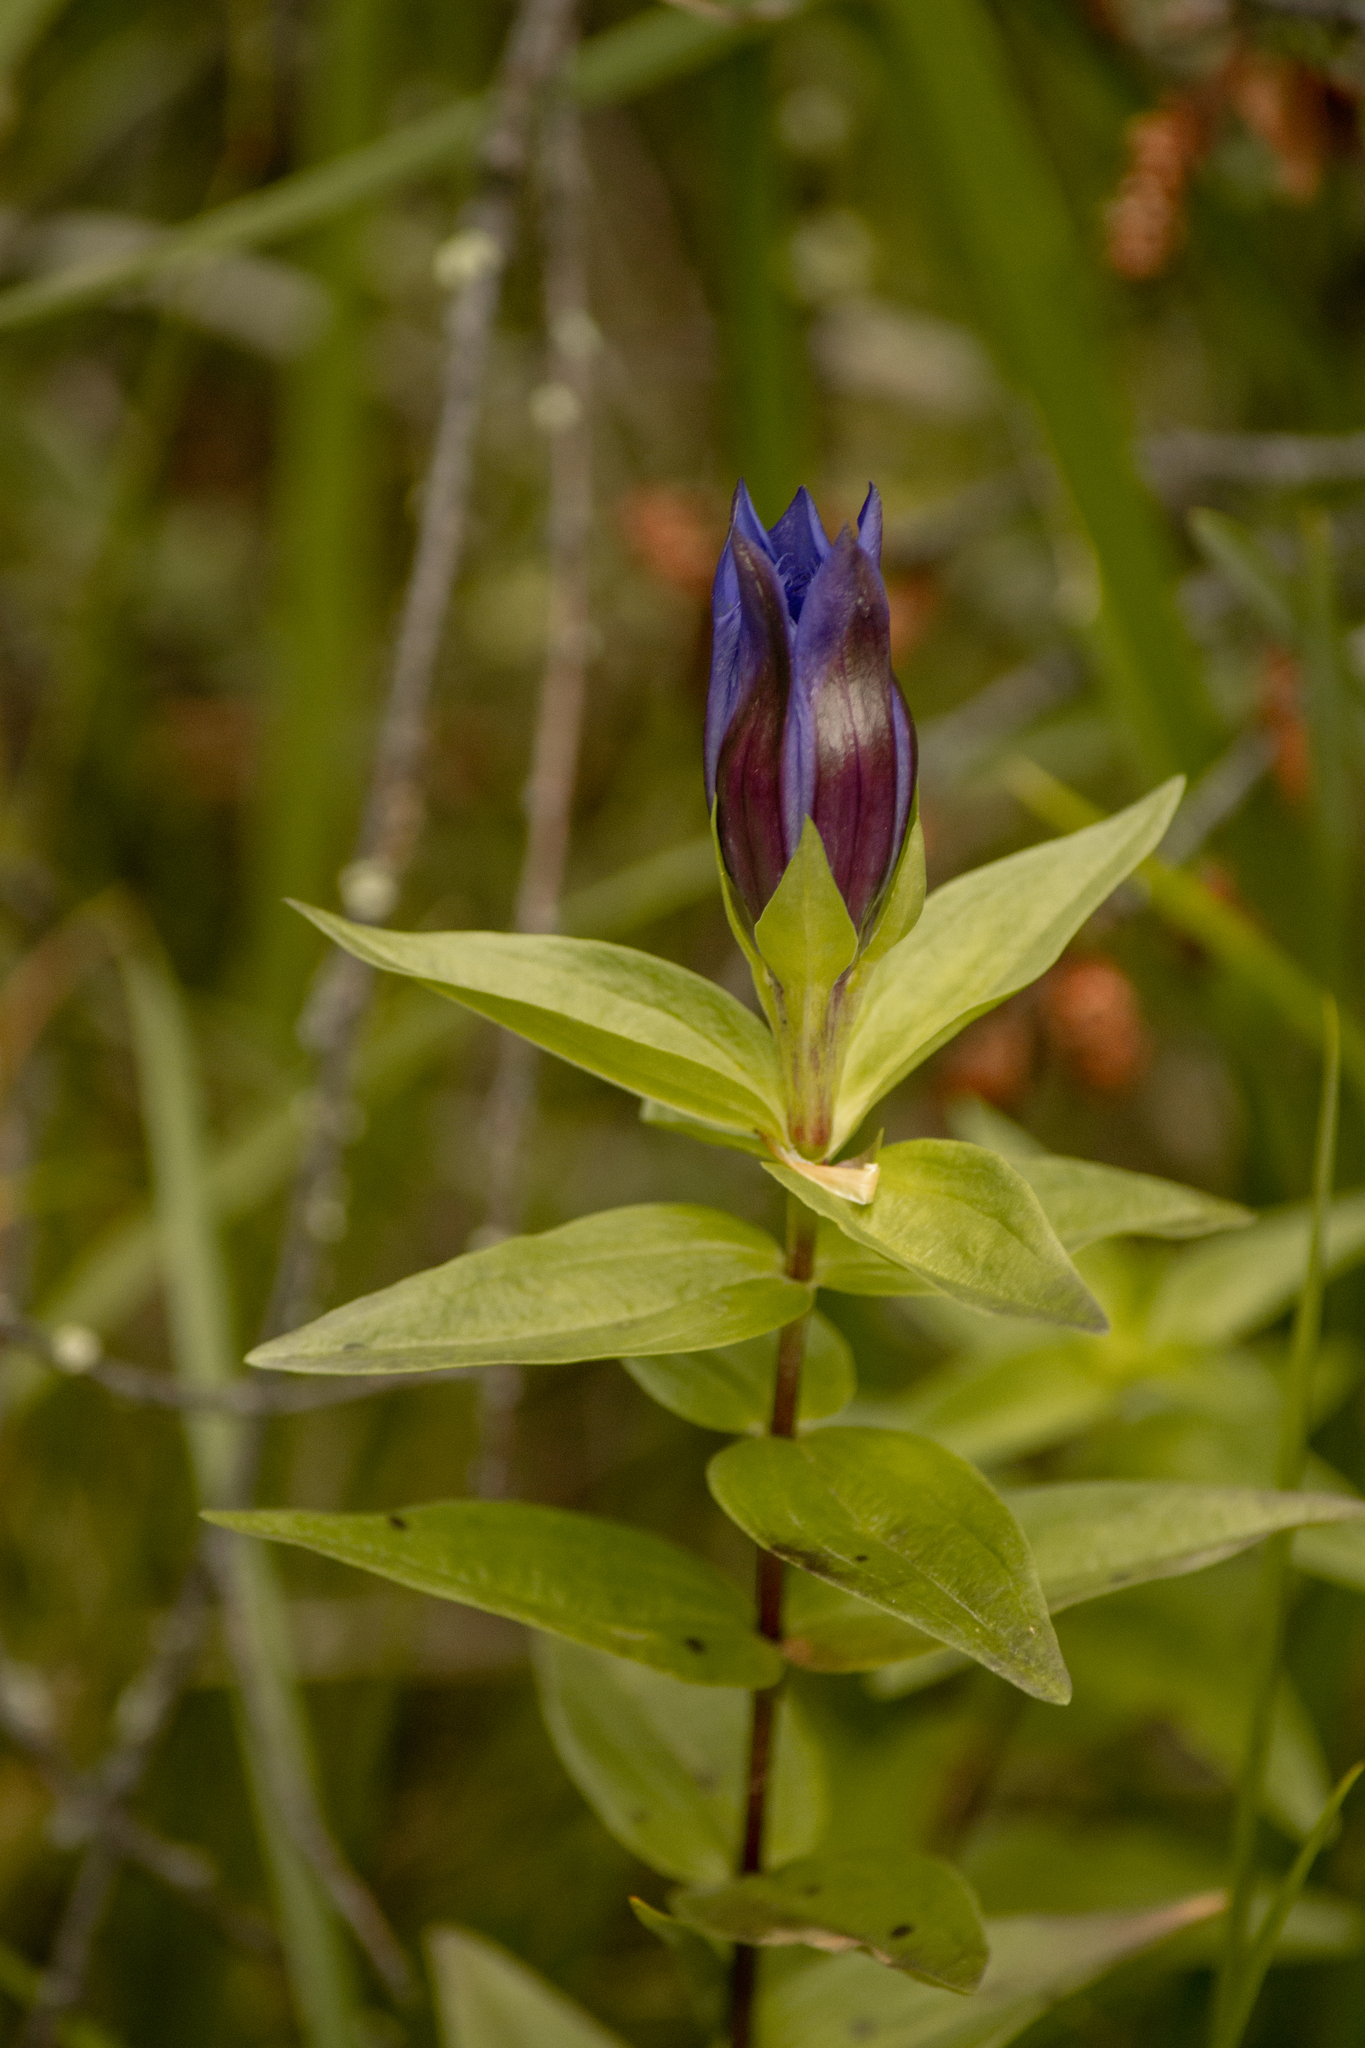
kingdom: Plantae
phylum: Tracheophyta
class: Magnoliopsida
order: Gentianales
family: Gentianaceae
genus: Gentiana
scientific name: Gentiana dschungarica
